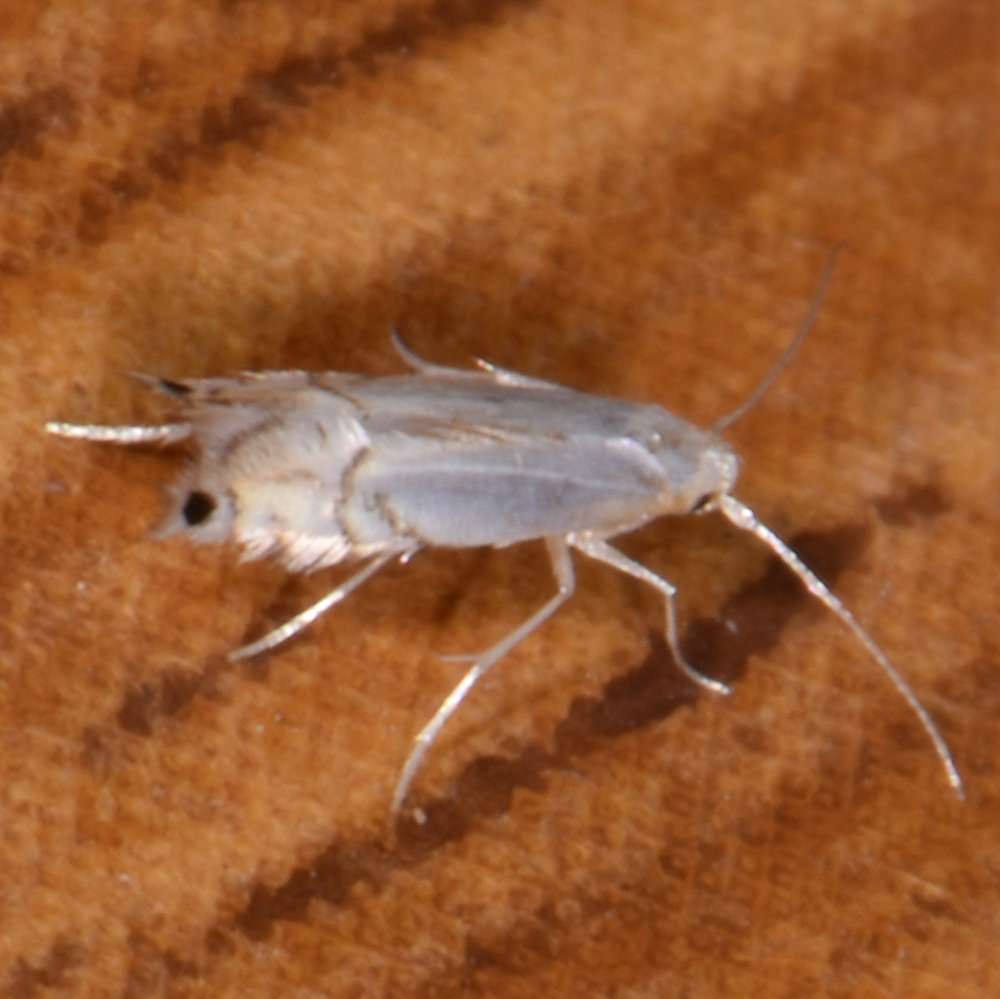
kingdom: Animalia
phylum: Arthropoda
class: Insecta
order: Lepidoptera
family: Gracillariidae
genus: Phyllocnistis
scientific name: Phyllocnistis vitifoliella
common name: Grape leaf-miner moth
